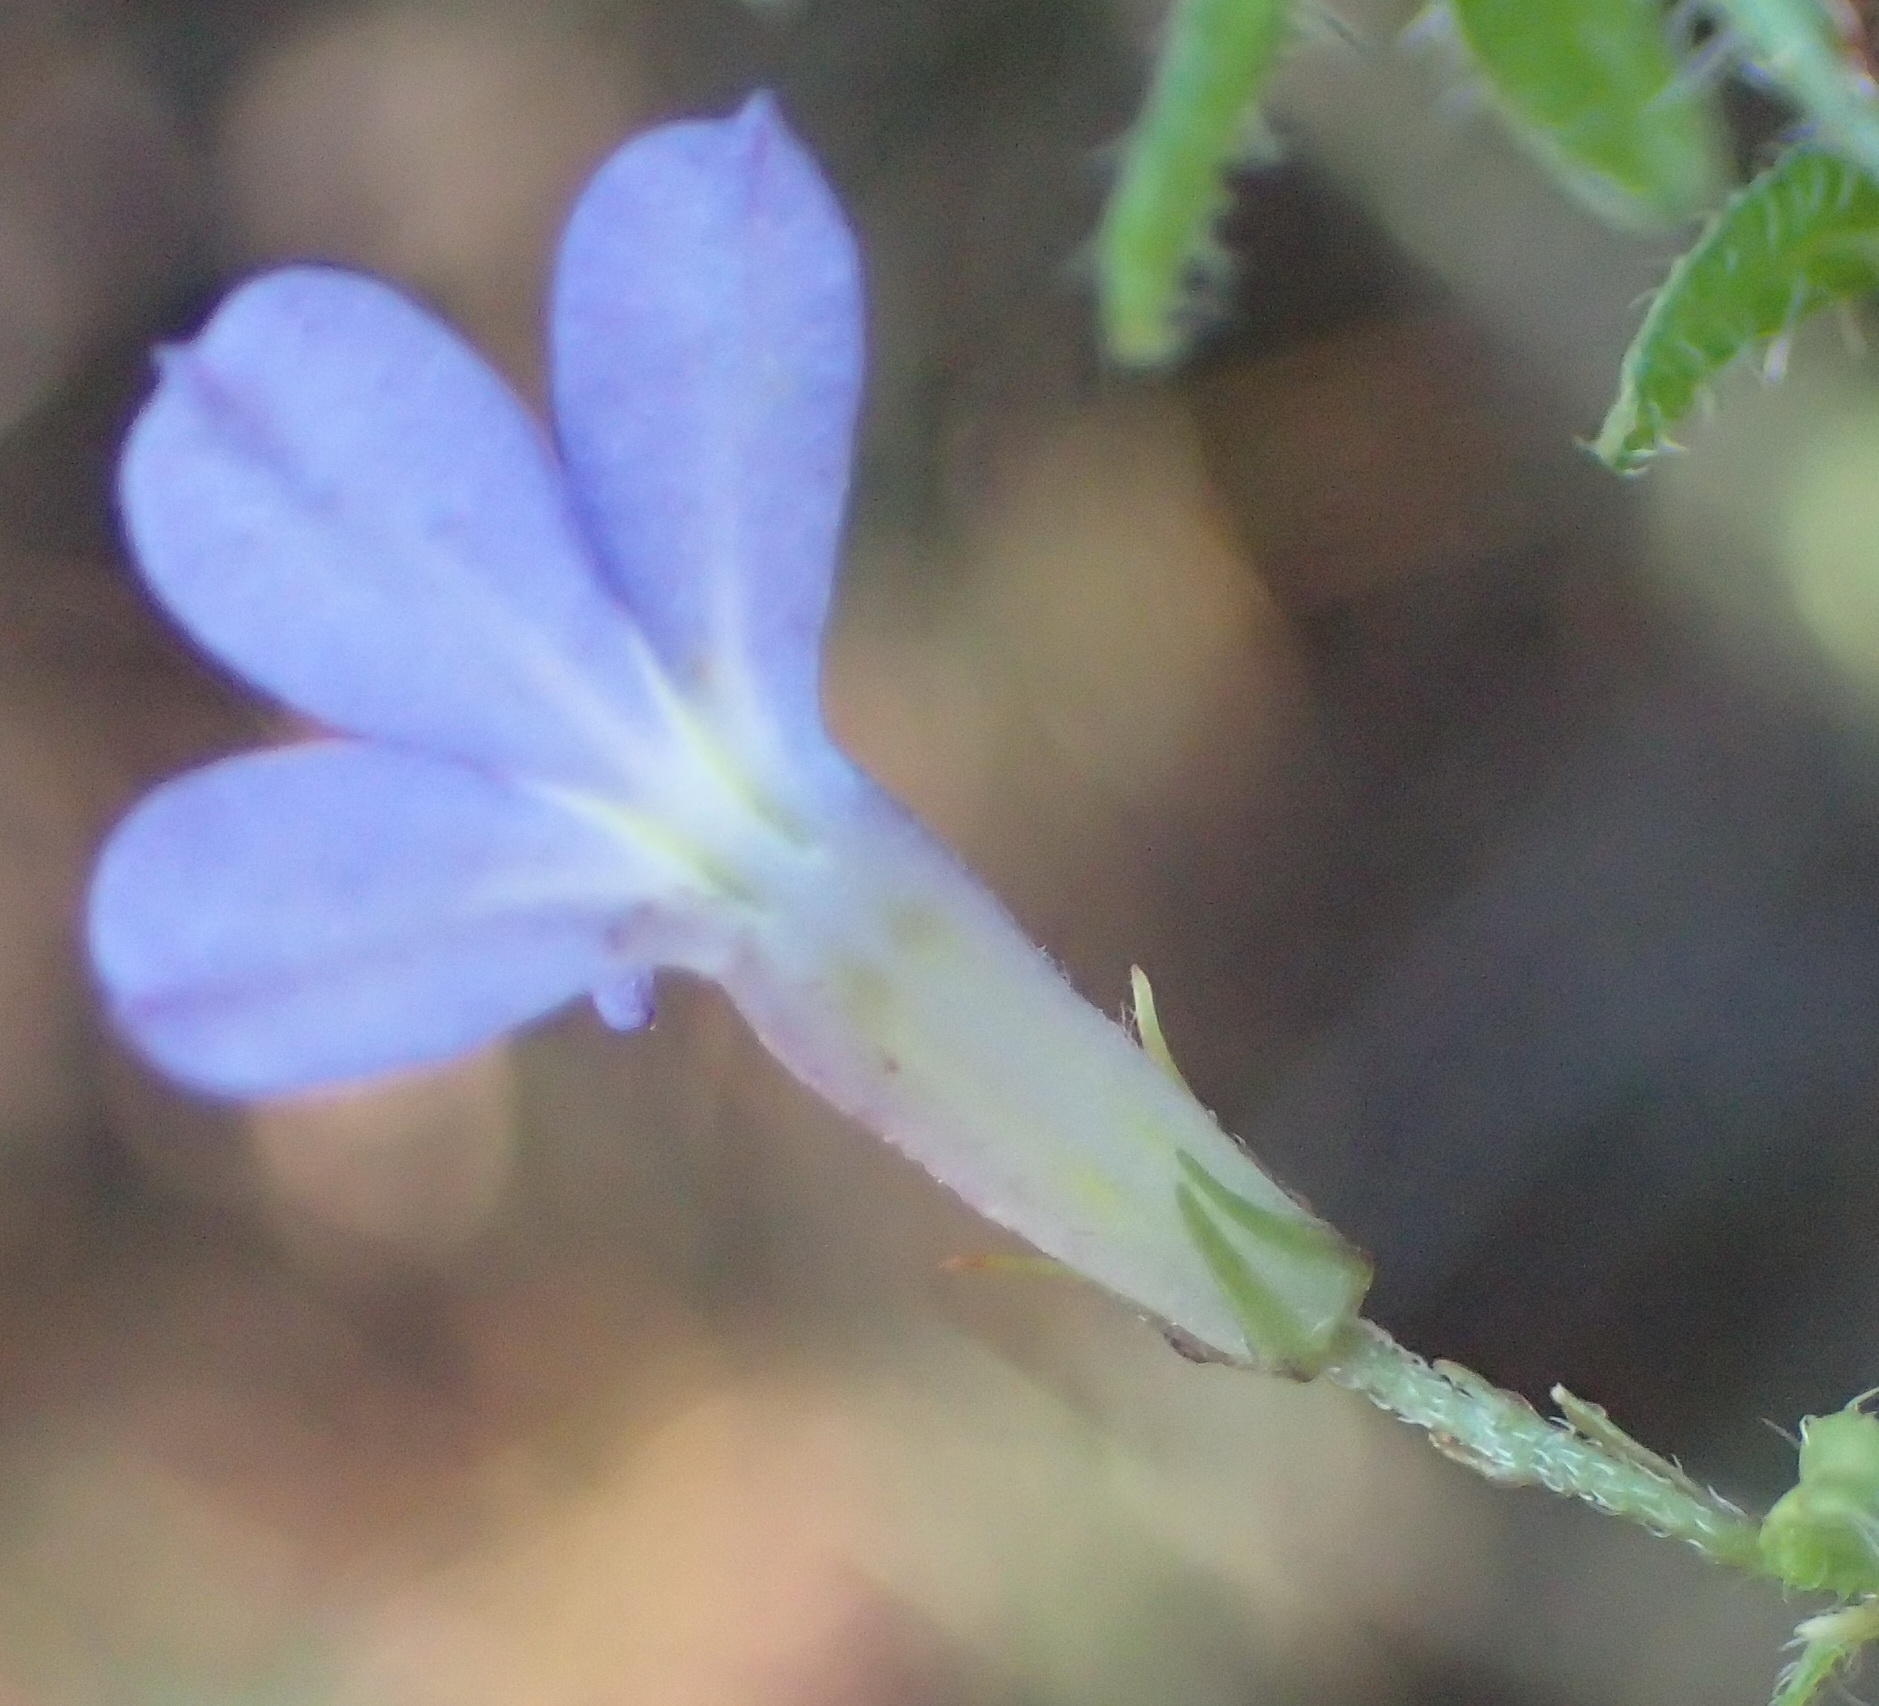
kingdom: Plantae
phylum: Tracheophyta
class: Magnoliopsida
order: Asterales
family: Campanulaceae
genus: Lobelia
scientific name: Lobelia neglecta
